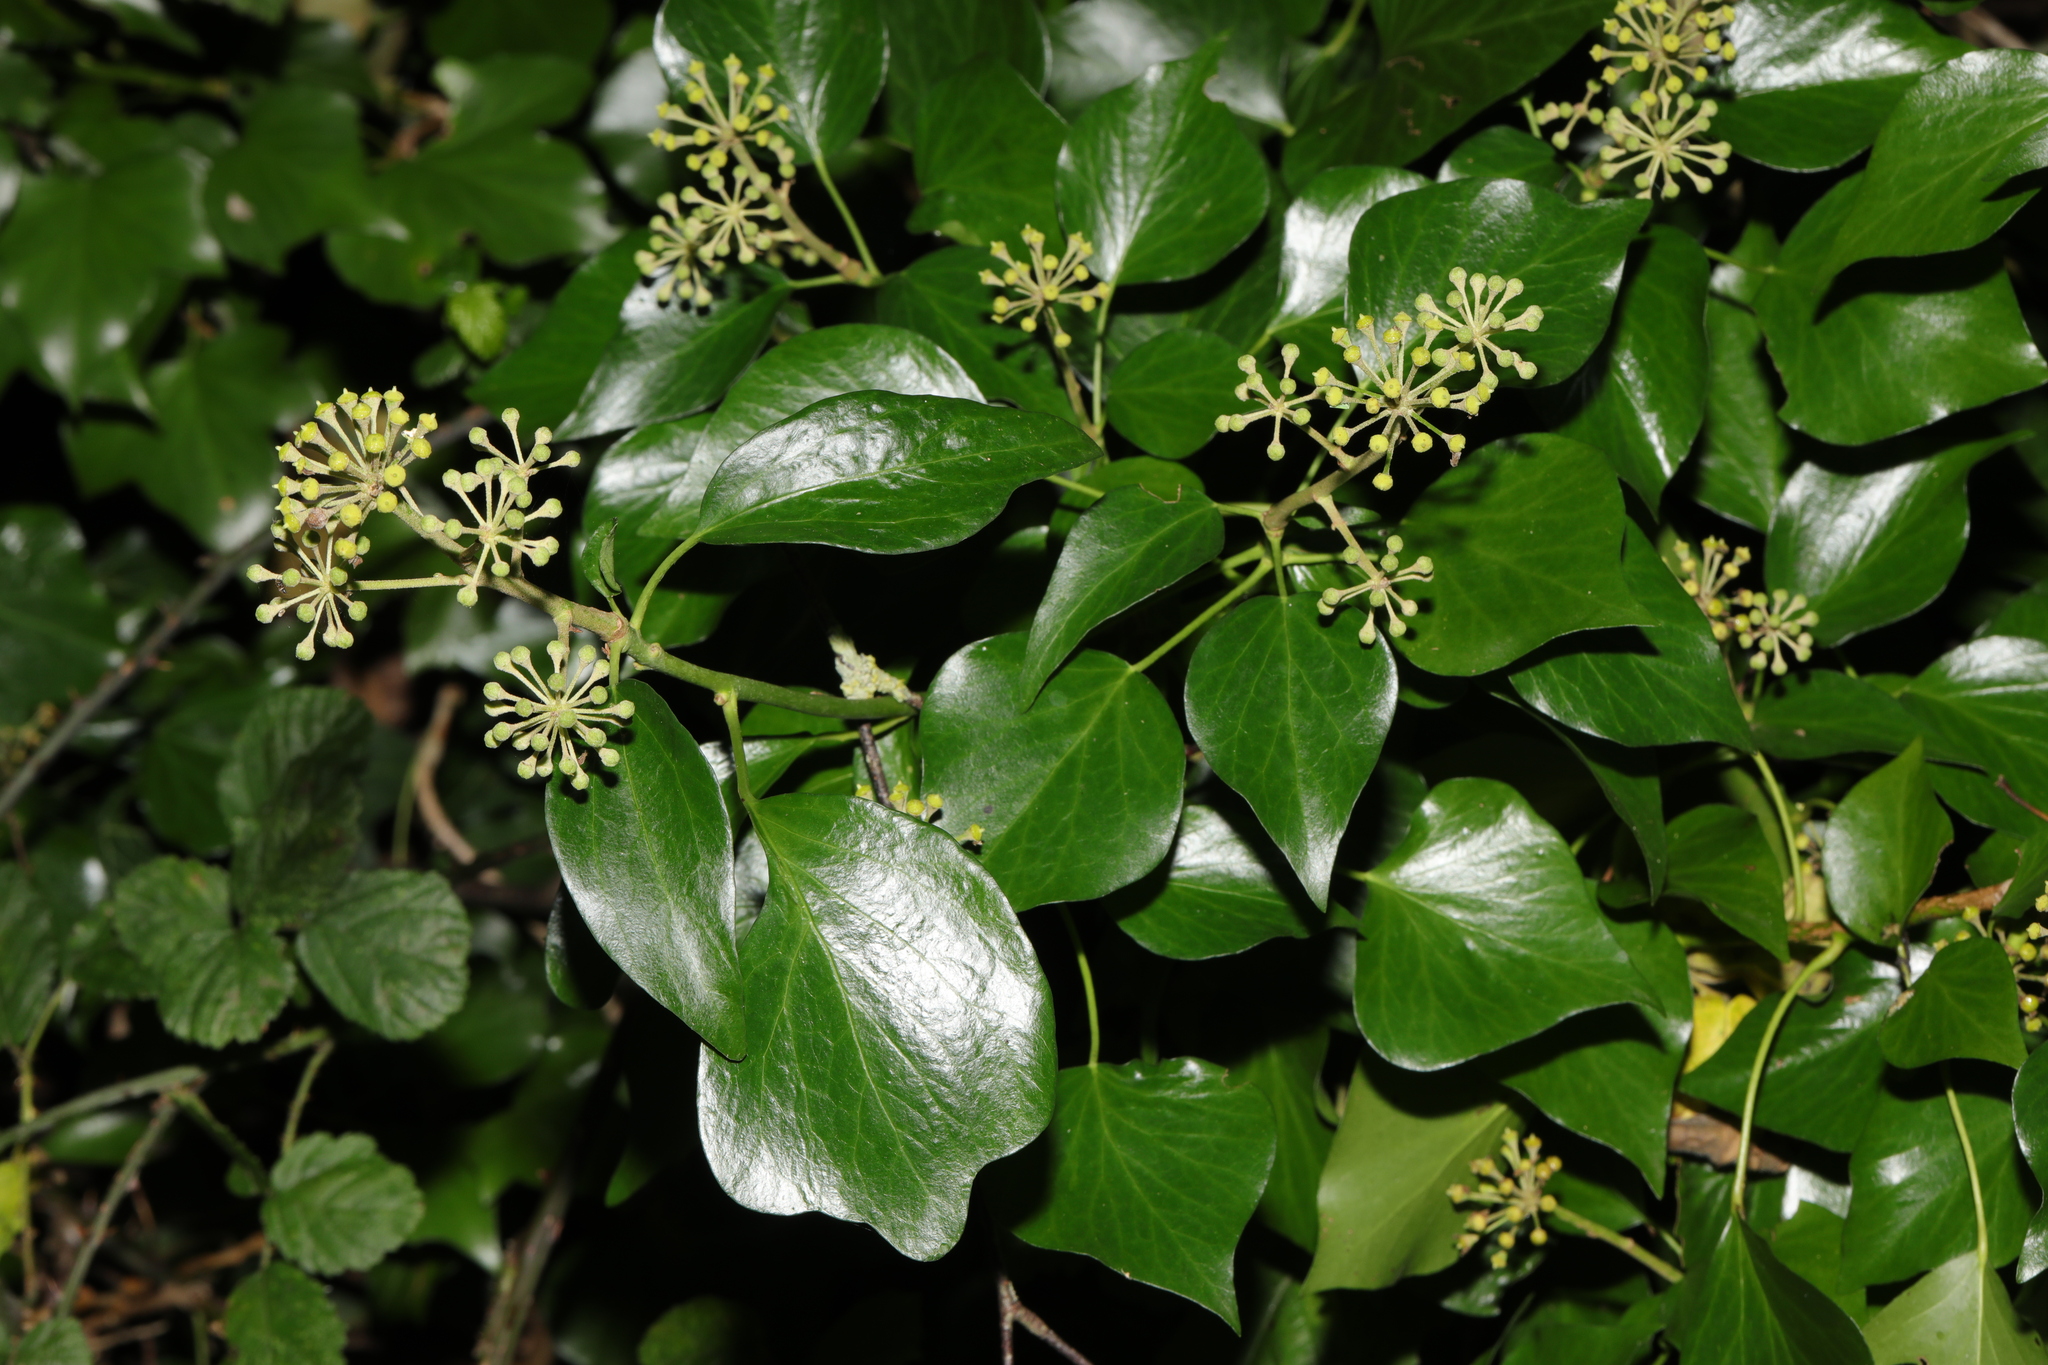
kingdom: Plantae
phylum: Tracheophyta
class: Magnoliopsida
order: Apiales
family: Araliaceae
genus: Hedera
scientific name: Hedera helix
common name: Ivy
